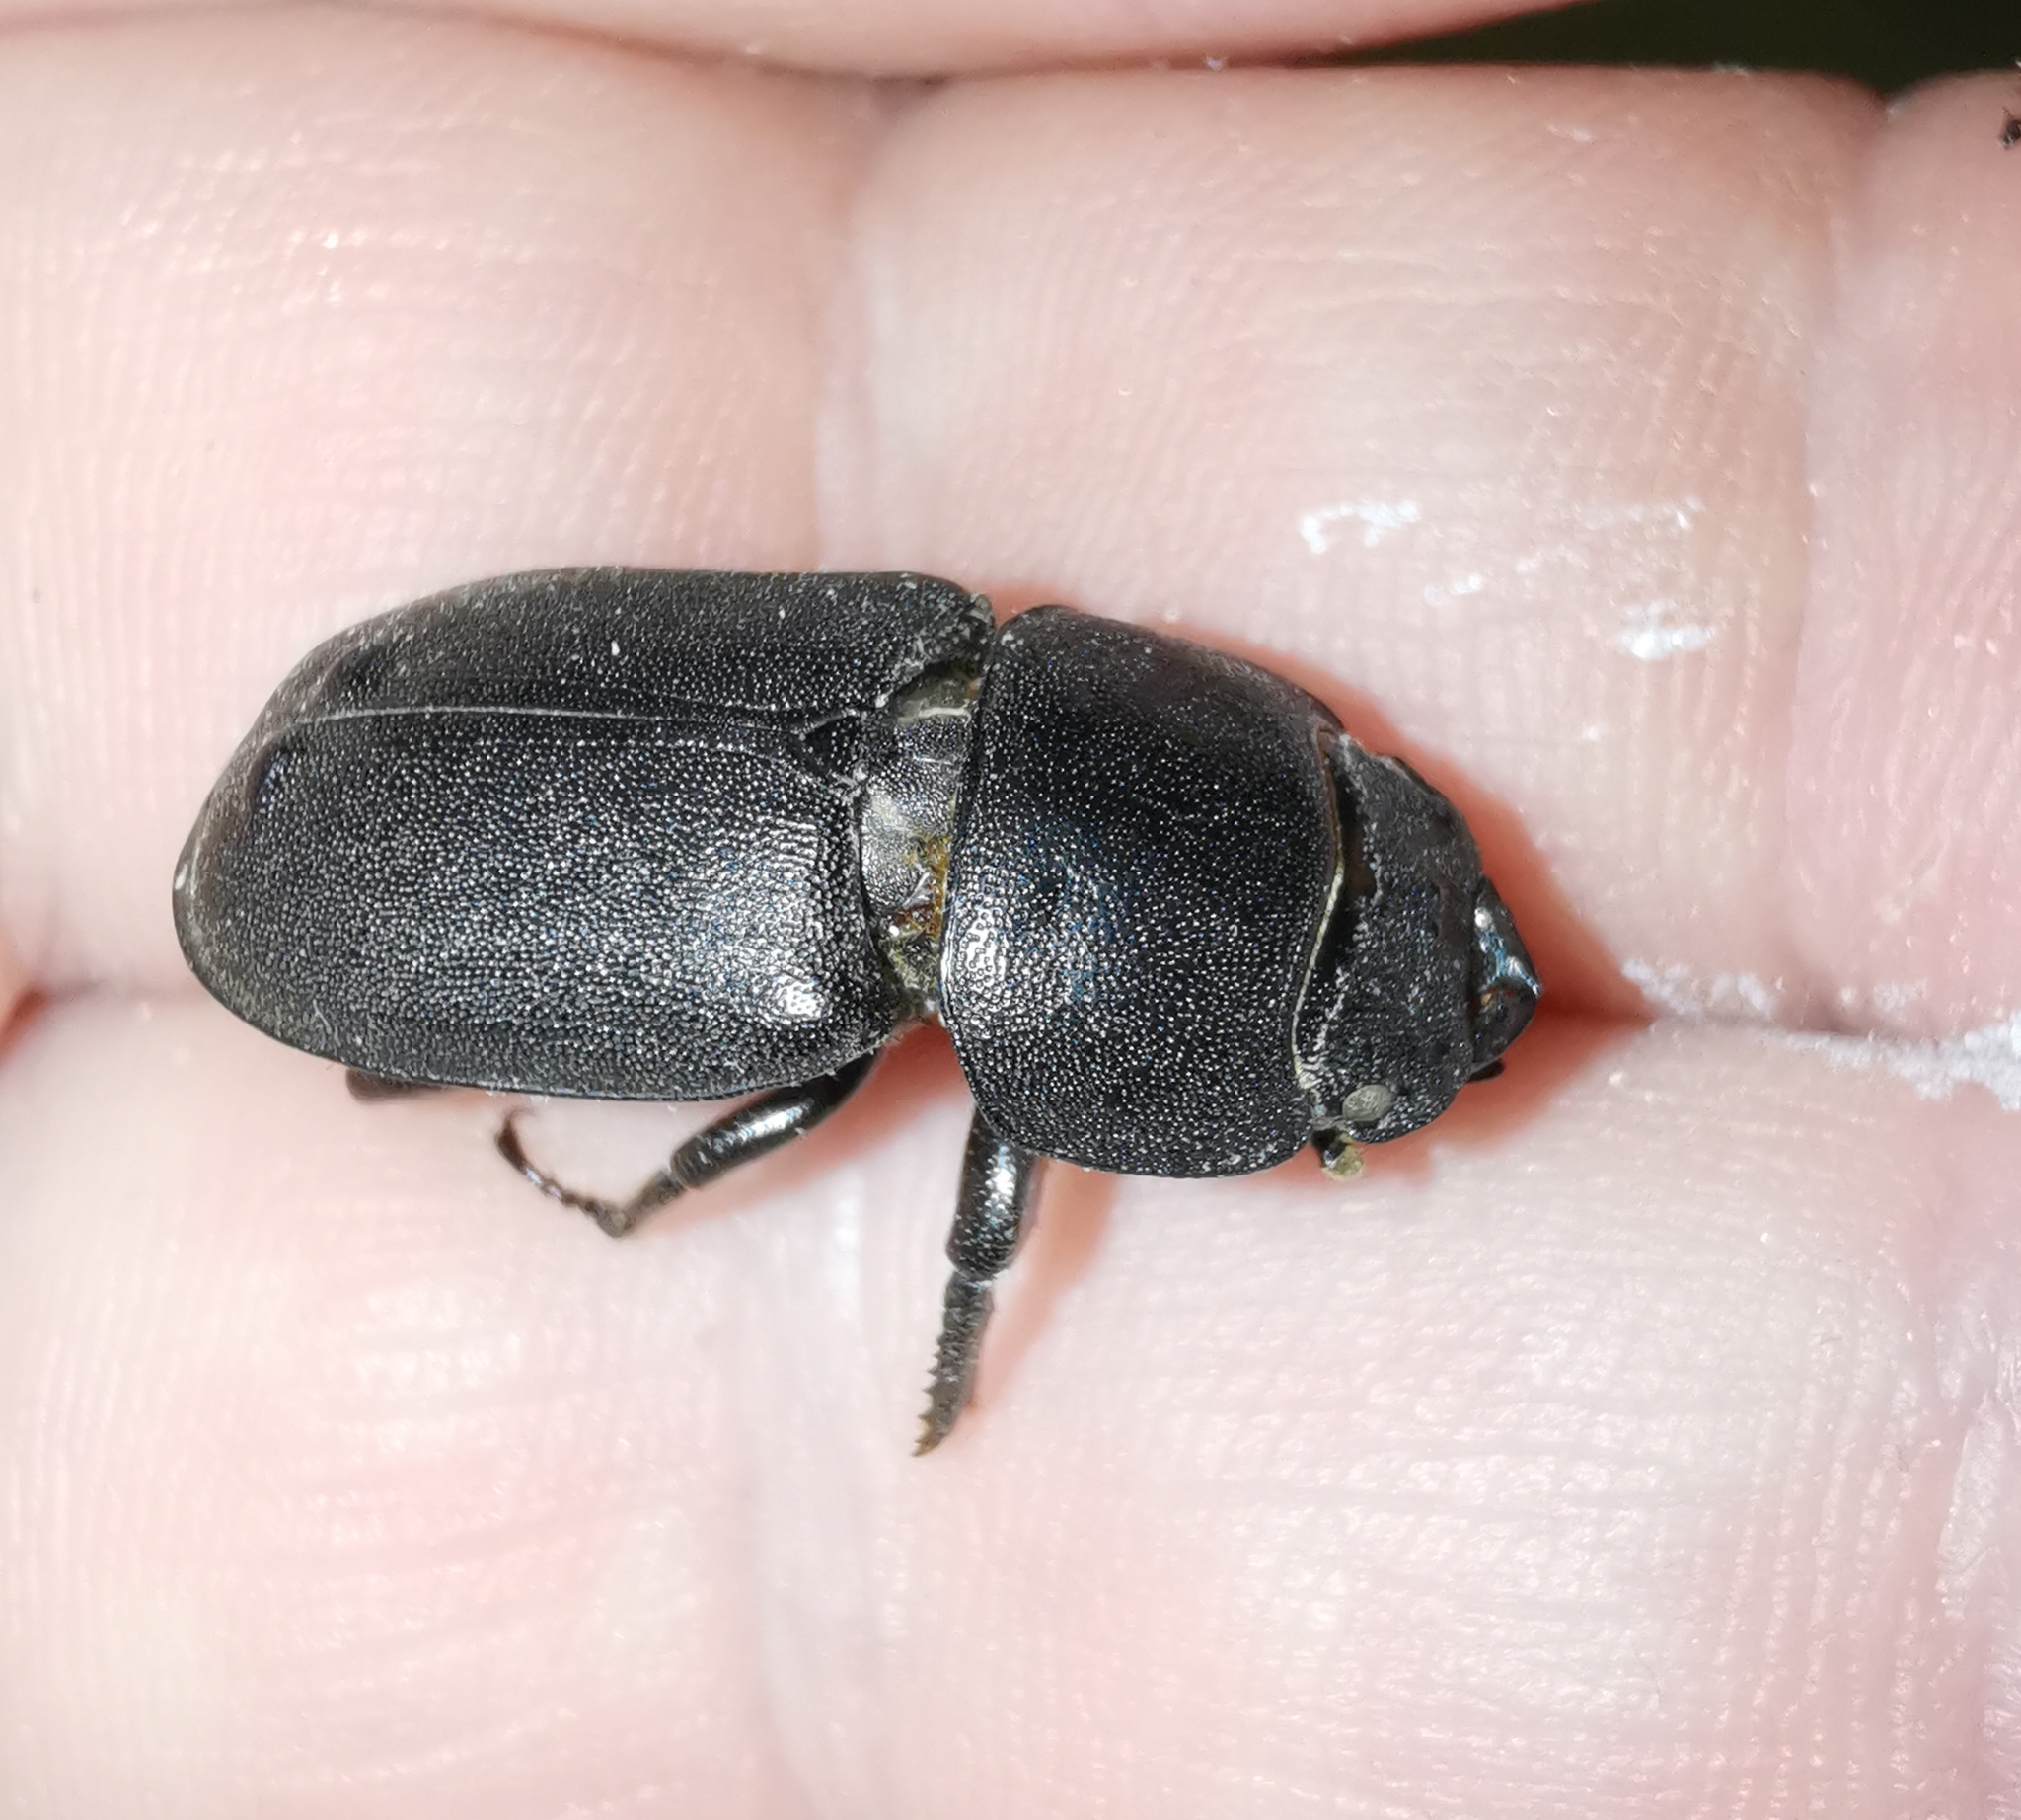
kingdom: Animalia
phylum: Arthropoda
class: Insecta
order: Coleoptera
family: Lucanidae
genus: Dorcus
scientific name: Dorcus parallelipipedus
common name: Lesser stag beetle
